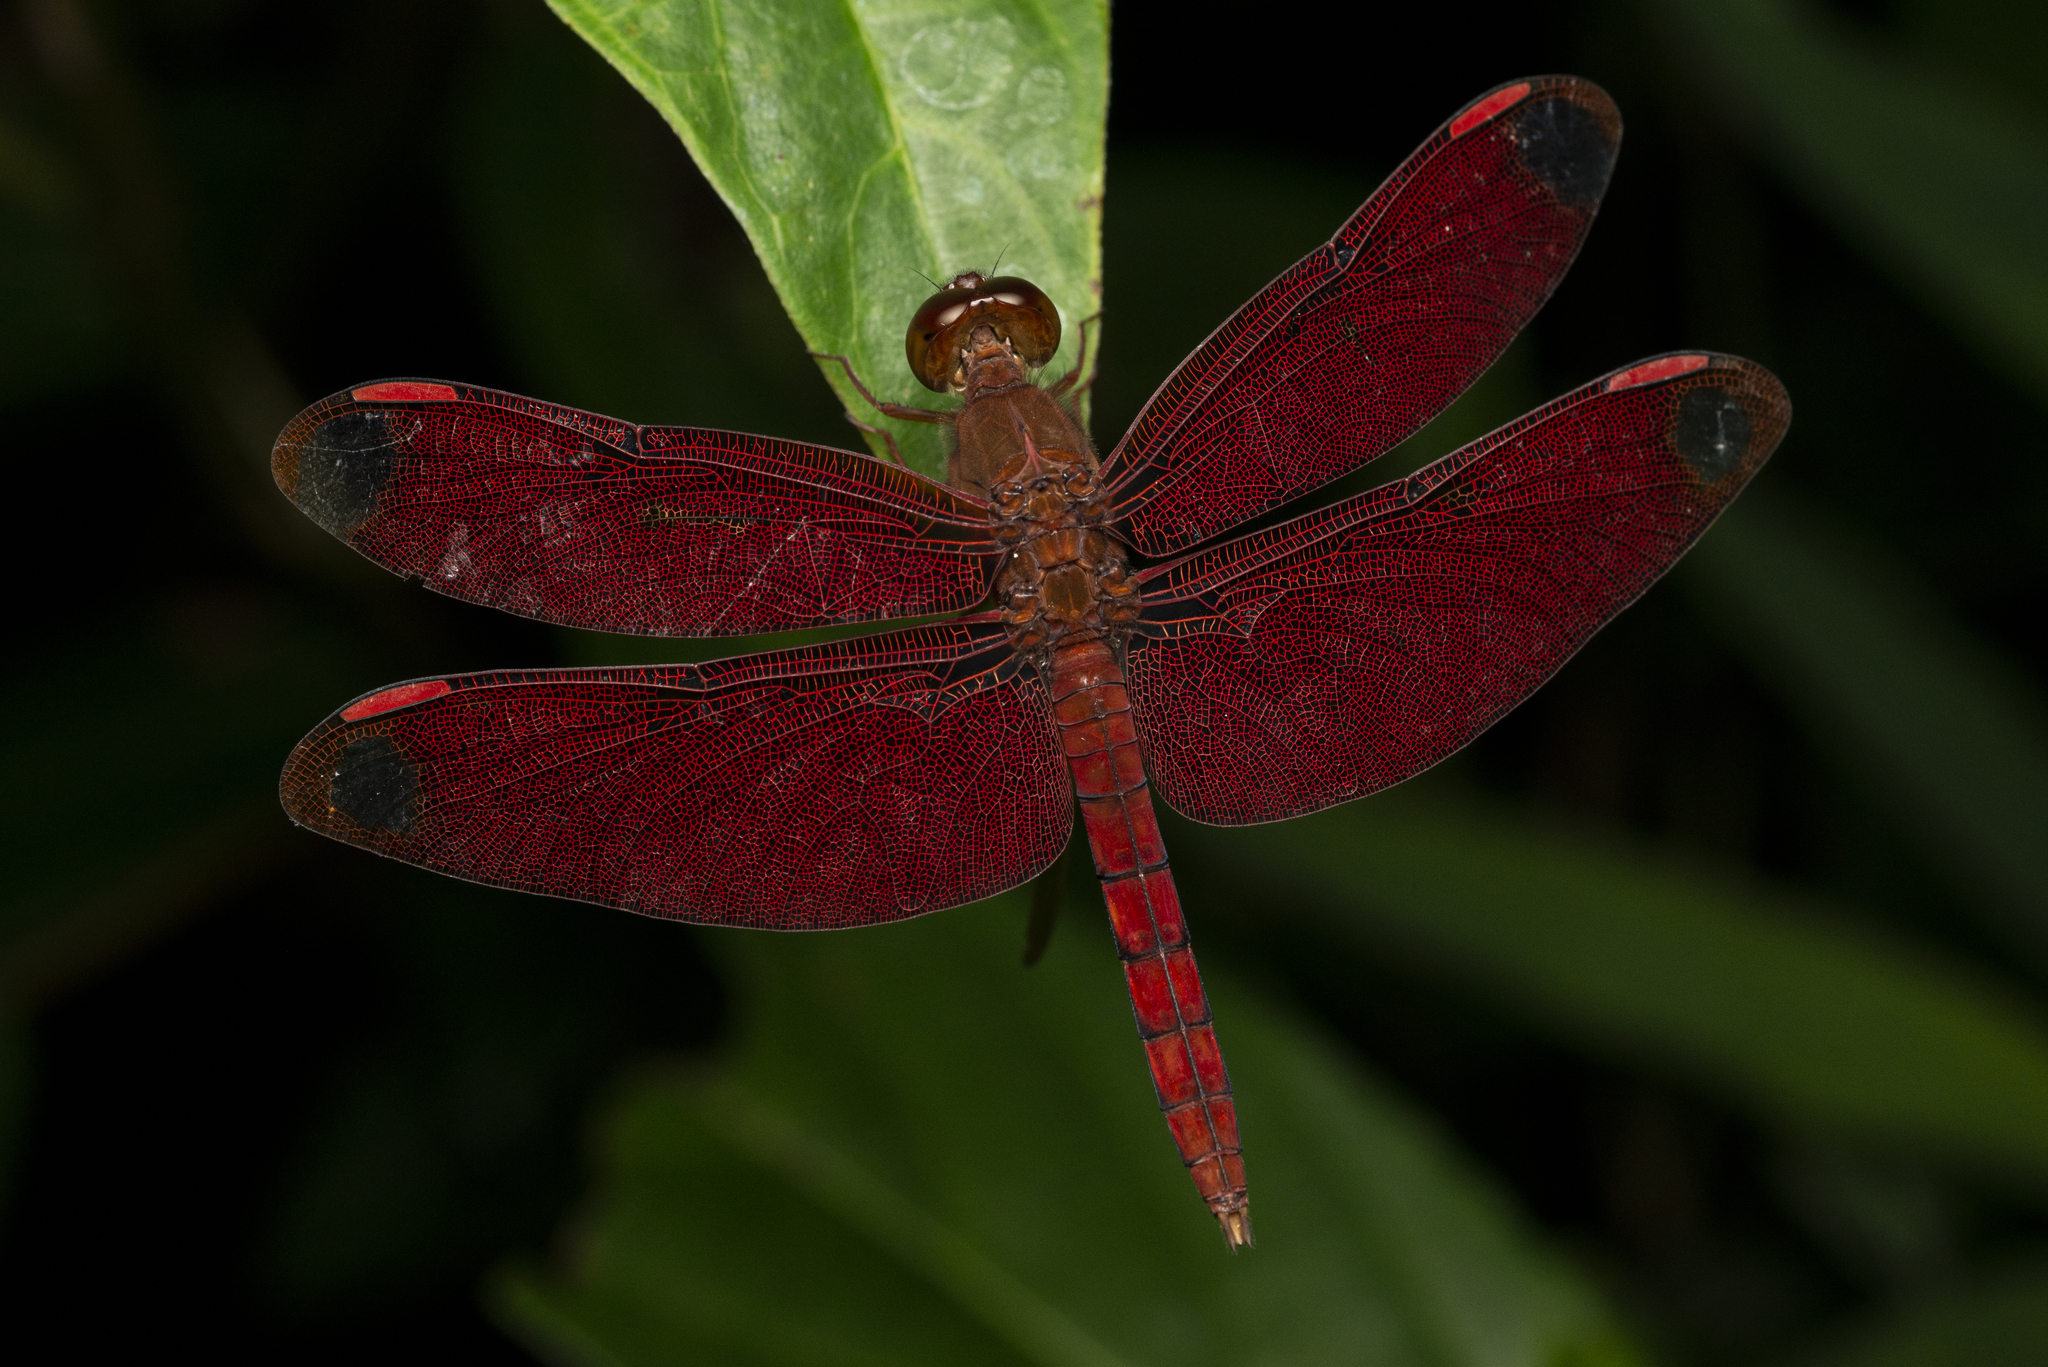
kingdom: Animalia
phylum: Arthropoda
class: Insecta
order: Odonata
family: Libellulidae
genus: Neurothemis
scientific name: Neurothemis fulvia
